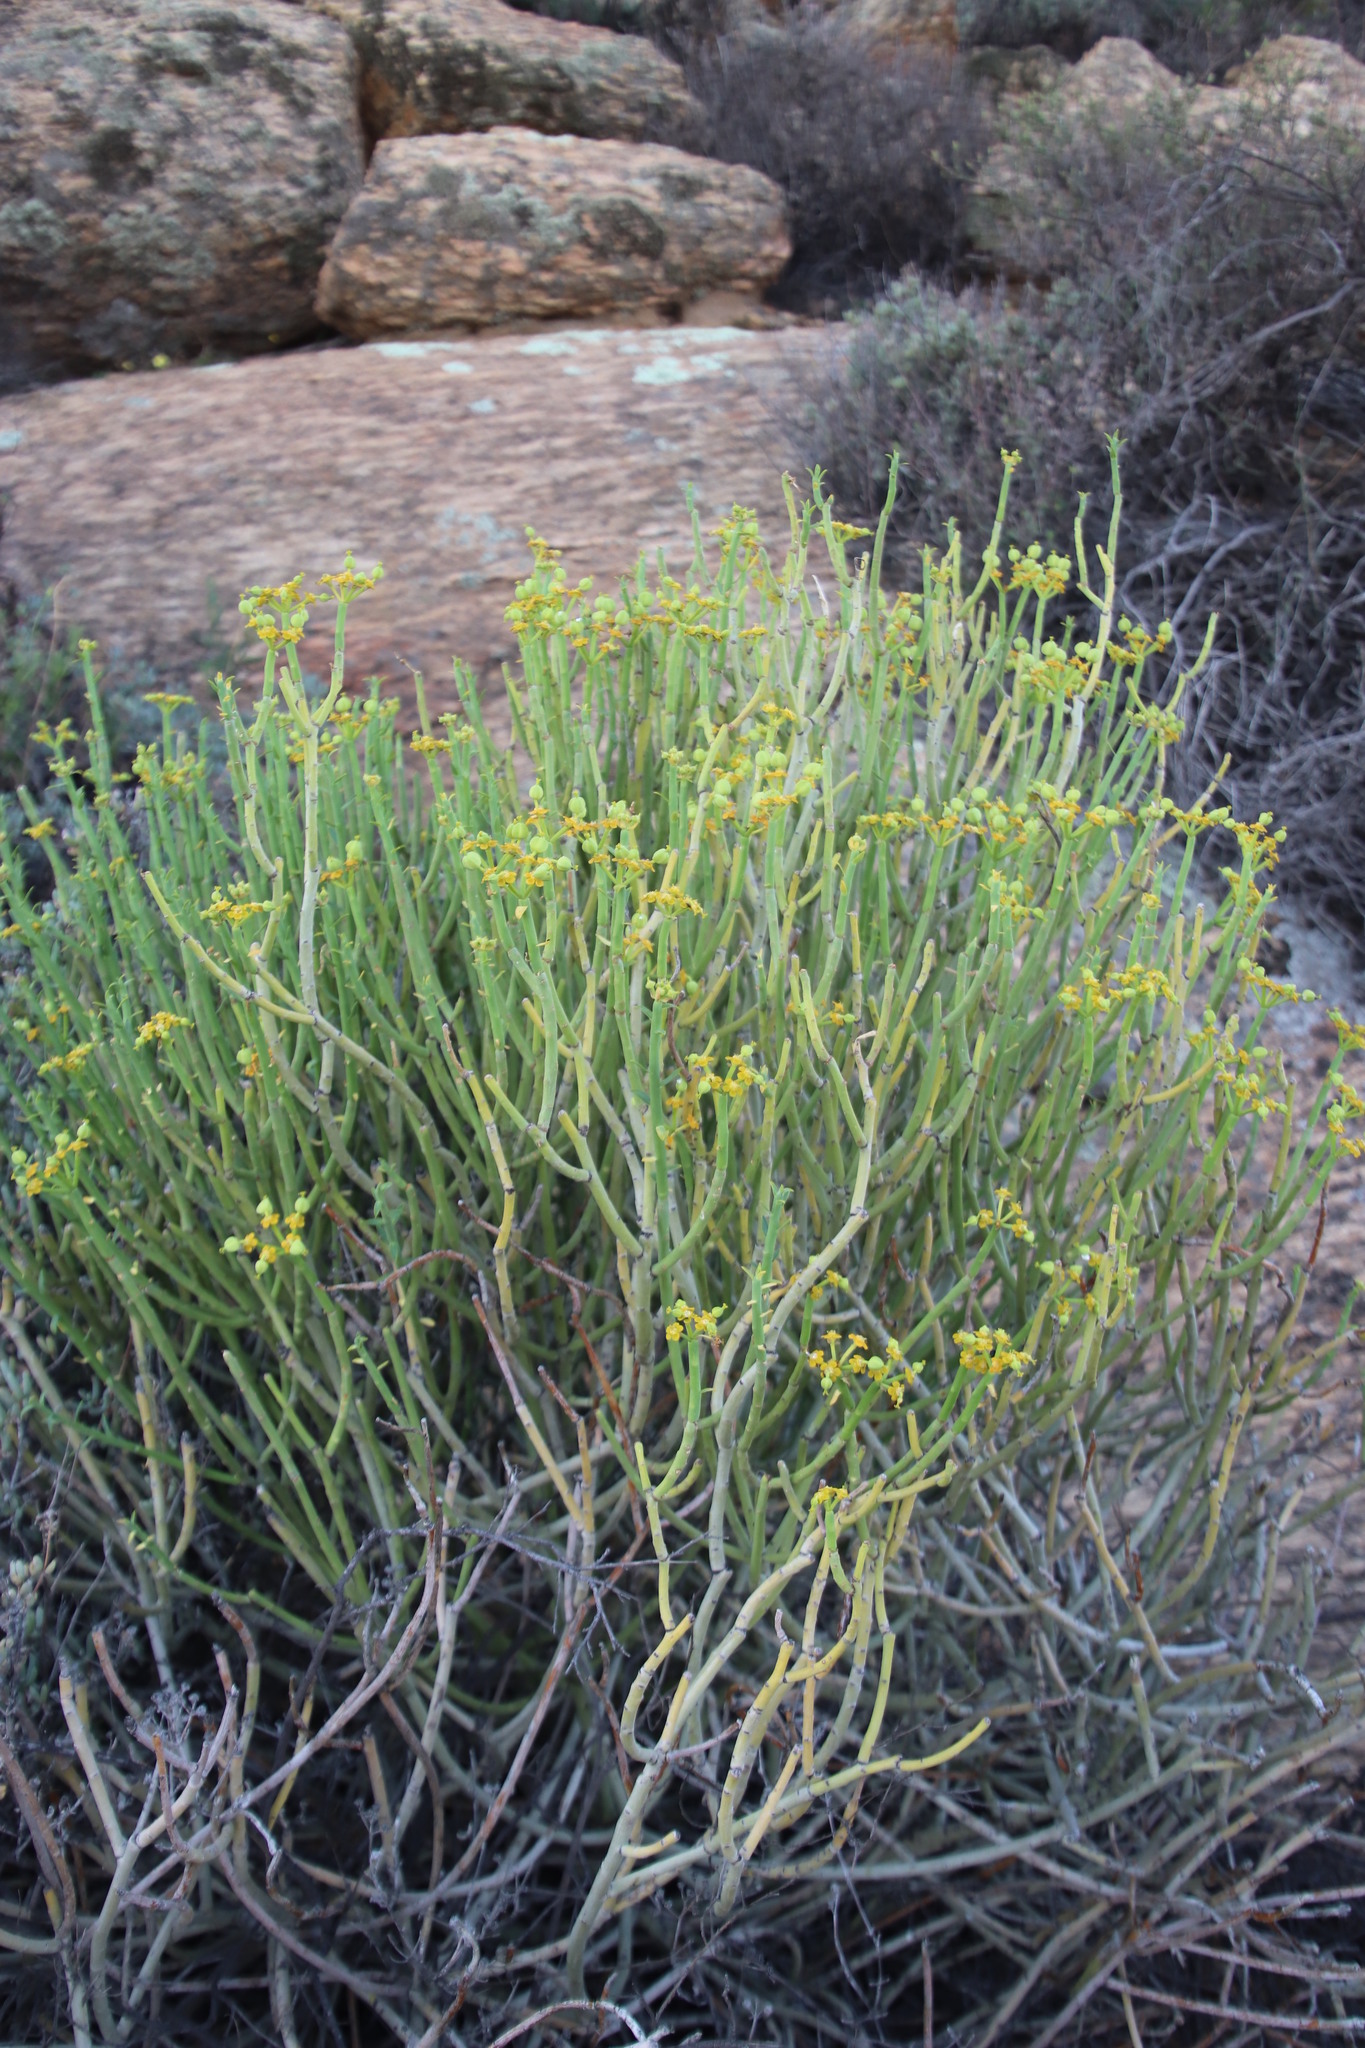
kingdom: Plantae
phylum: Tracheophyta
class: Magnoliopsida
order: Malpighiales
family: Euphorbiaceae
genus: Euphorbia
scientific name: Euphorbia mauritanica
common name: Jackal's-food
